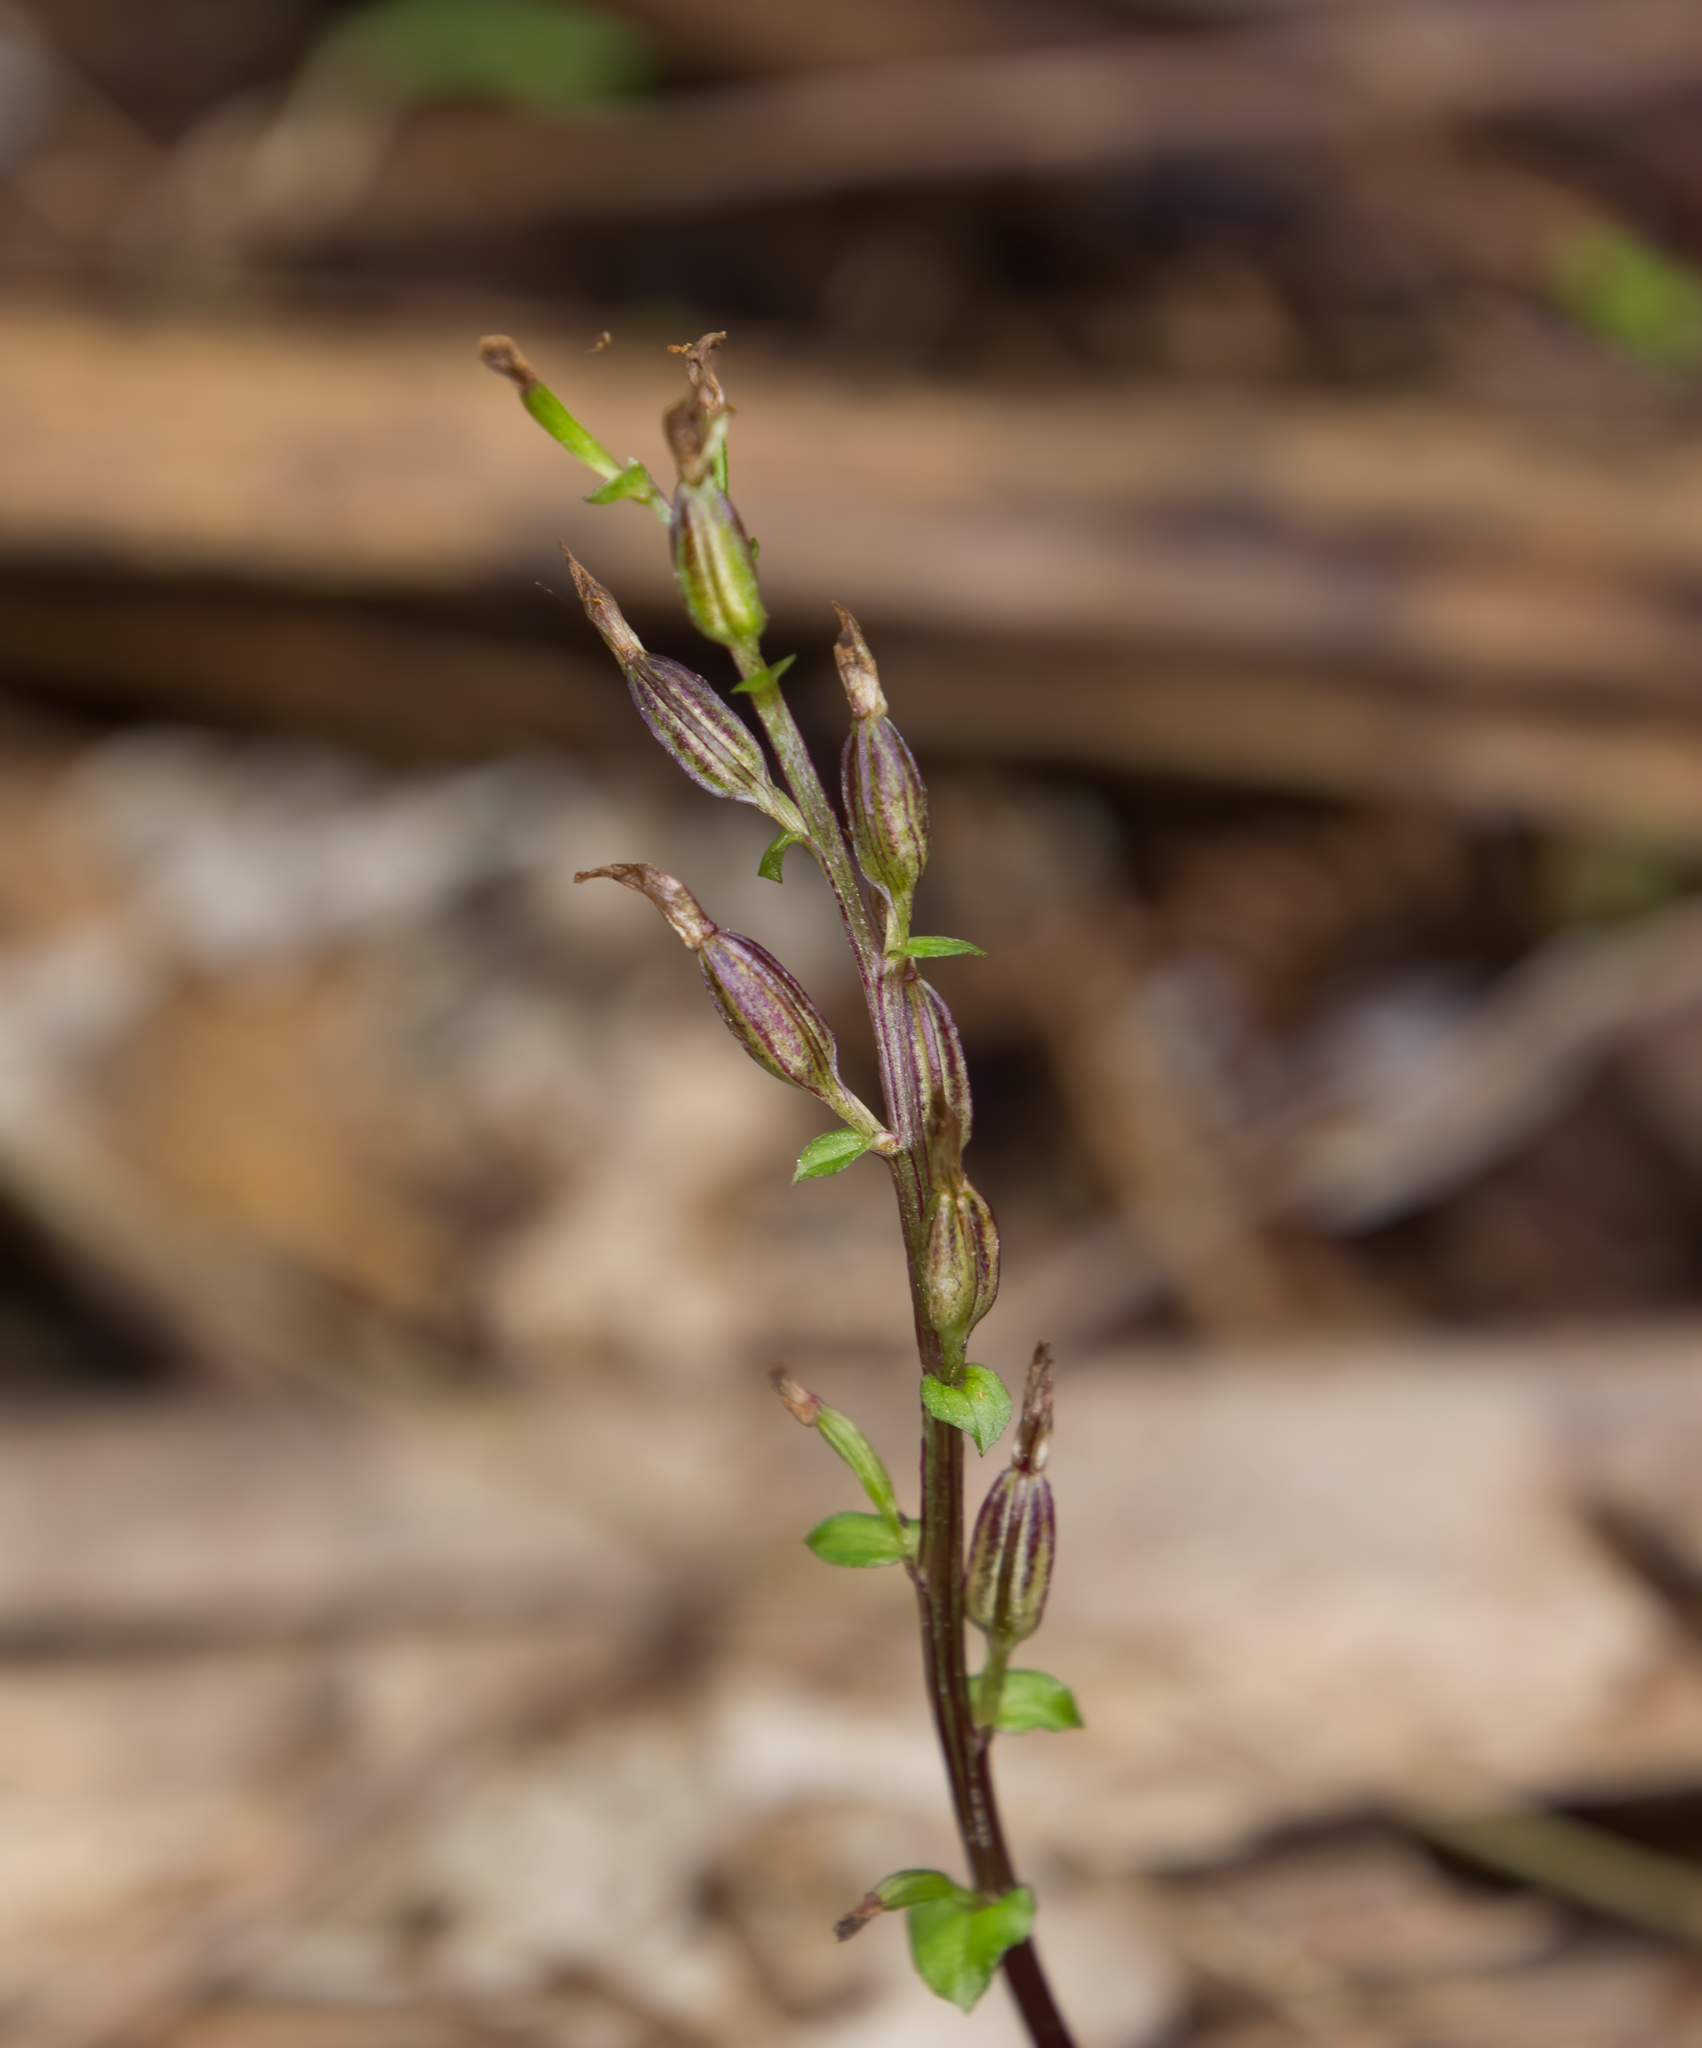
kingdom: Plantae
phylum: Tracheophyta
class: Liliopsida
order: Asparagales
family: Orchidaceae
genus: Acianthus
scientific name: Acianthus sinclairii
